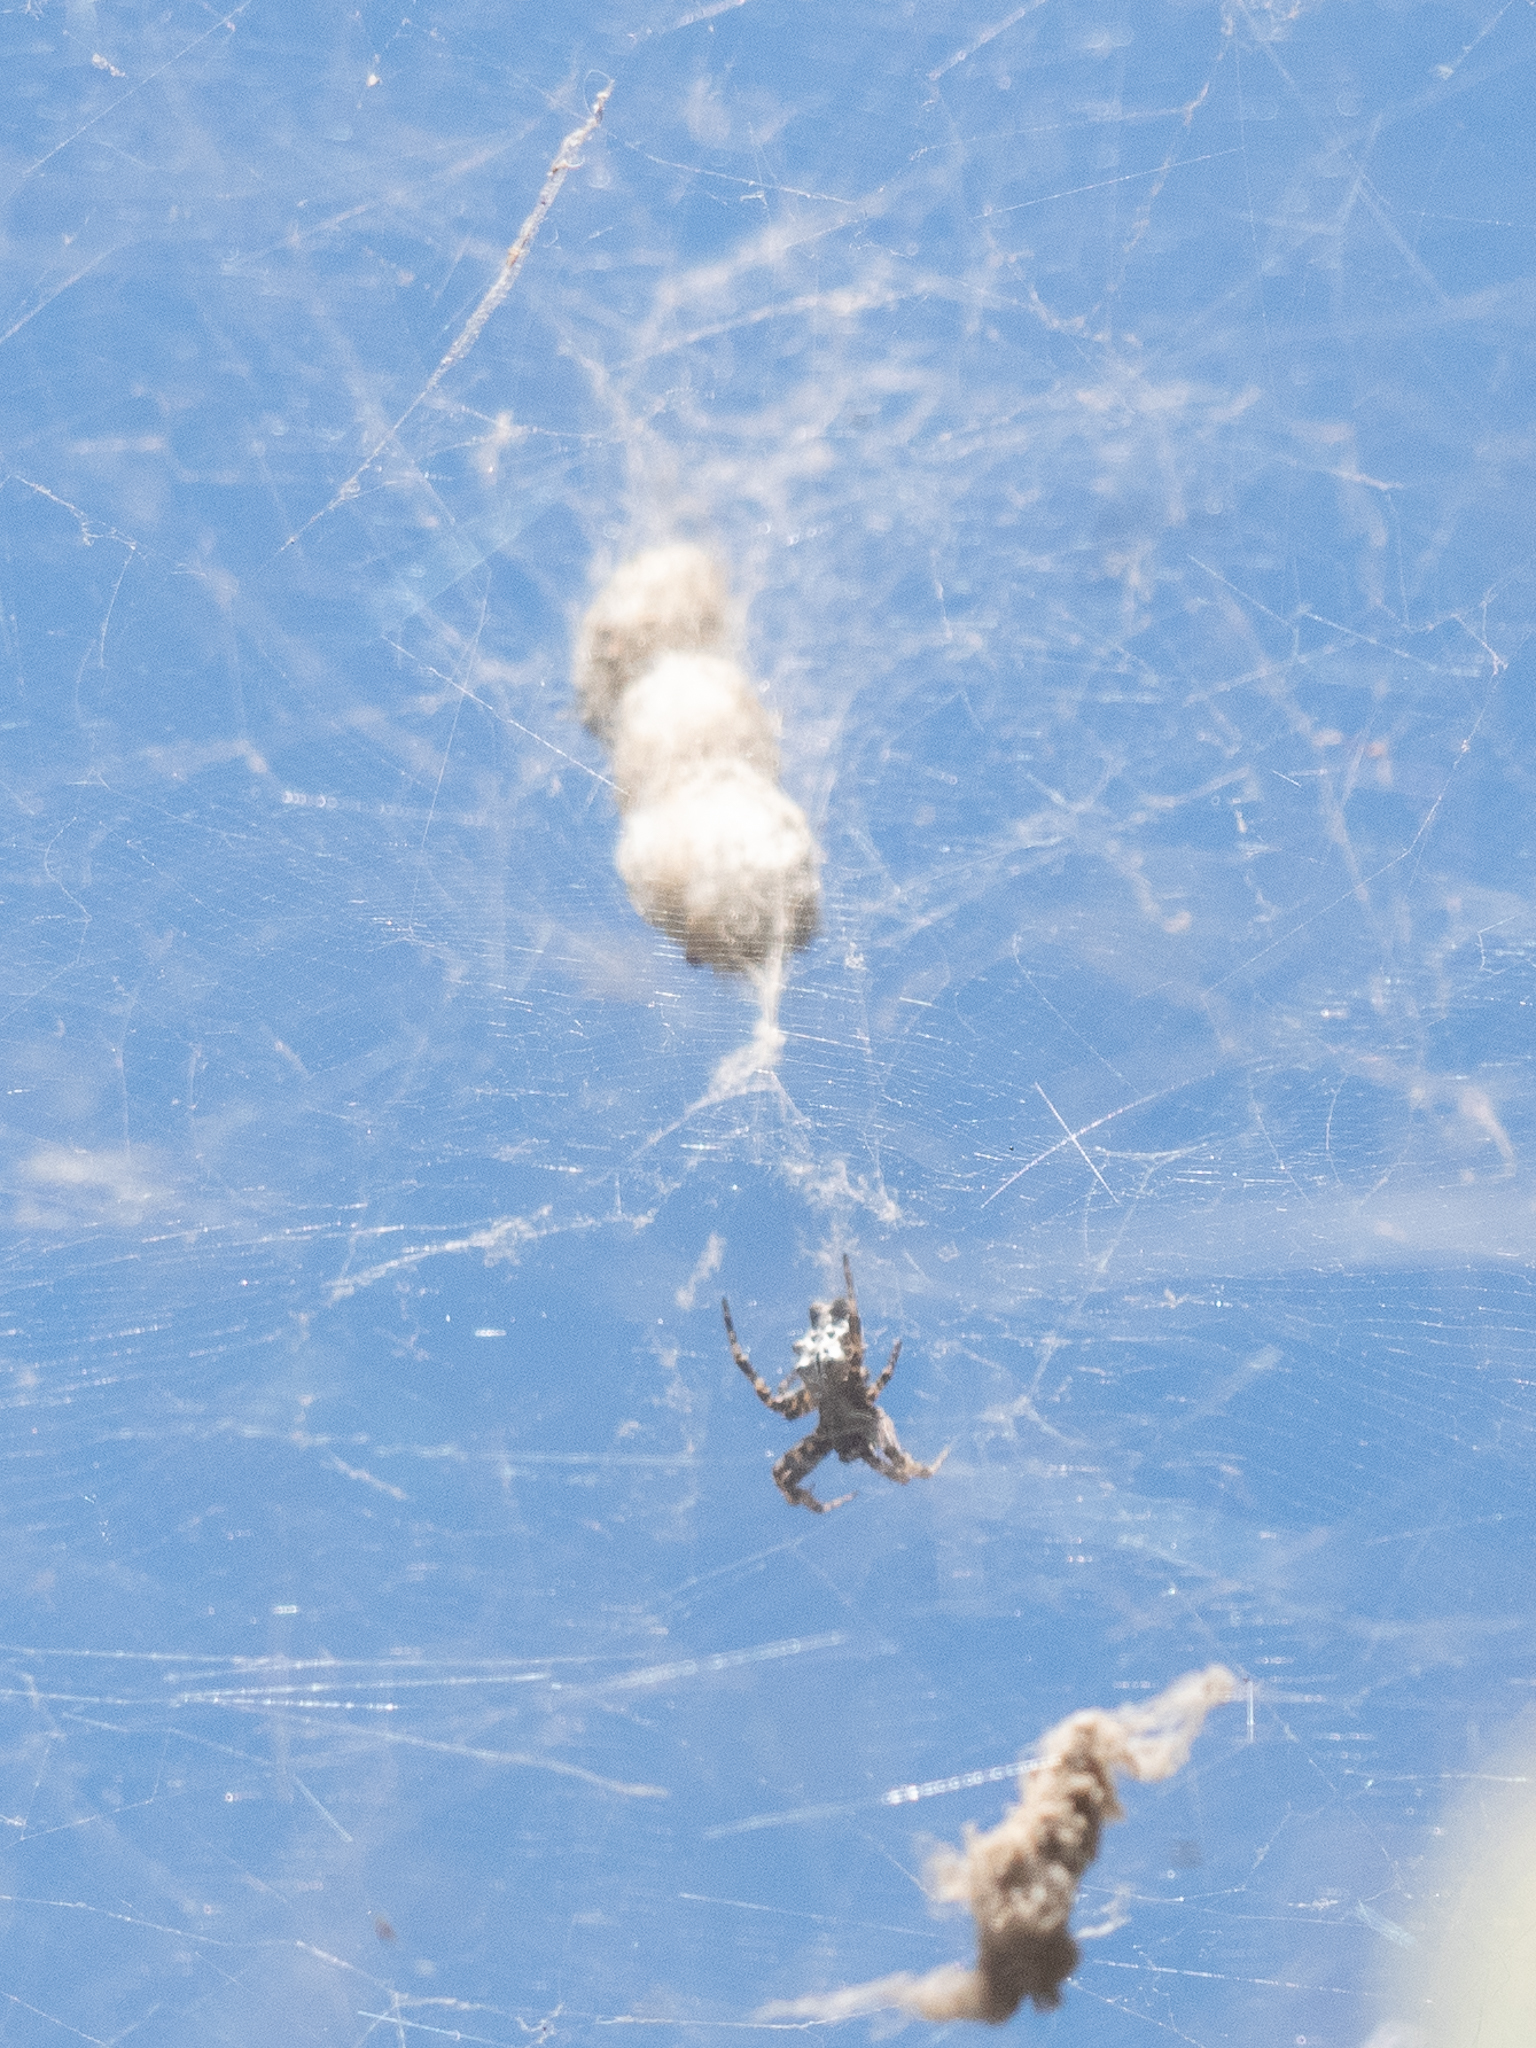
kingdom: Animalia
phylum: Arthropoda
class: Arachnida
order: Araneae
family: Araneidae
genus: Cyrtophora
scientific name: Cyrtophora citricola
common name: Orb weavers
